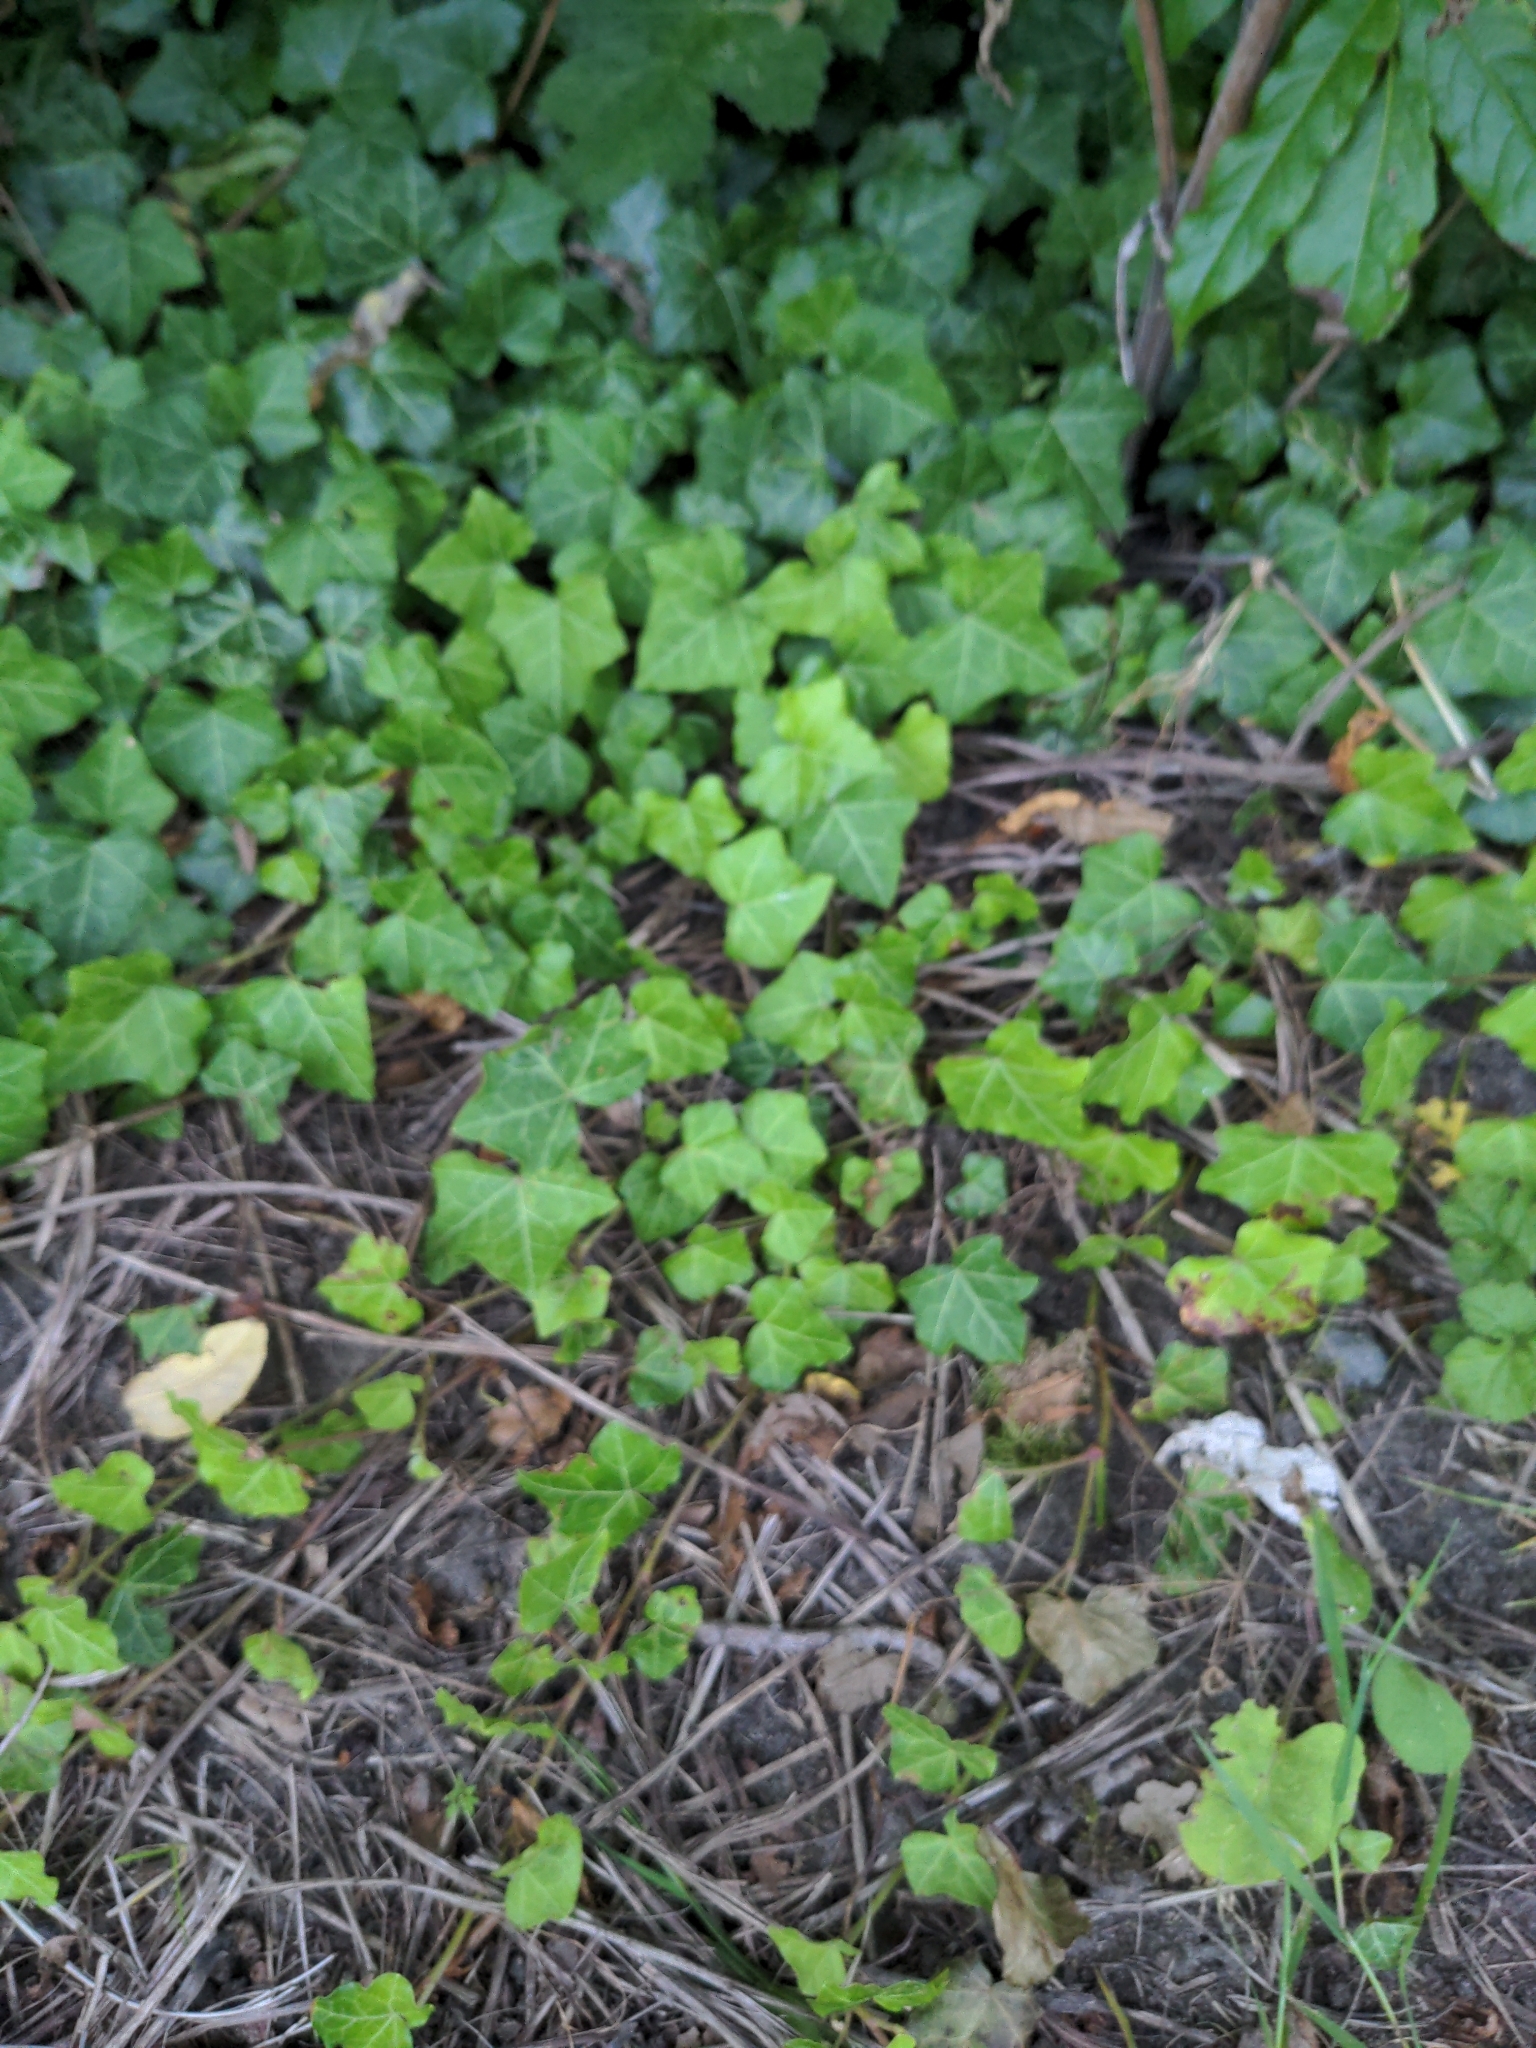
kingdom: Plantae
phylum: Tracheophyta
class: Magnoliopsida
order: Apiales
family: Araliaceae
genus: Hedera
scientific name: Hedera helix
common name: Ivy
